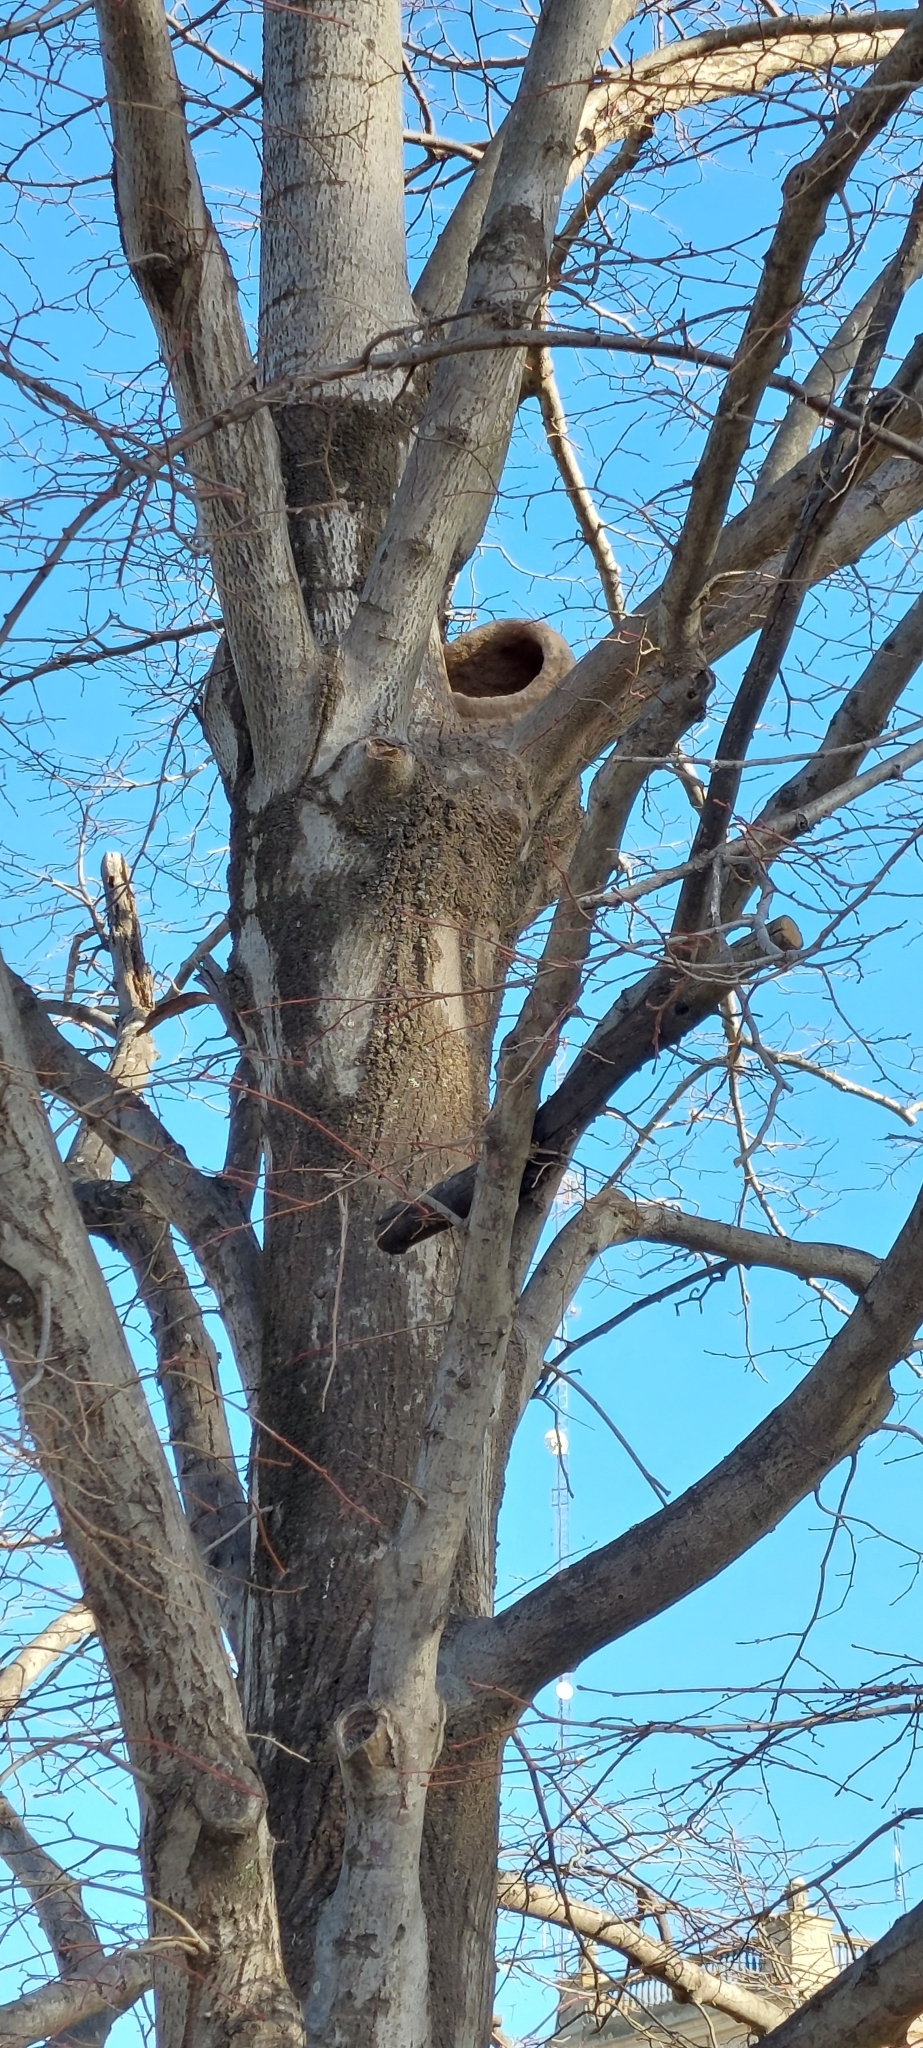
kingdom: Animalia
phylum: Chordata
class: Aves
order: Passeriformes
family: Furnariidae
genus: Furnarius
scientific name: Furnarius rufus
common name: Rufous hornero
